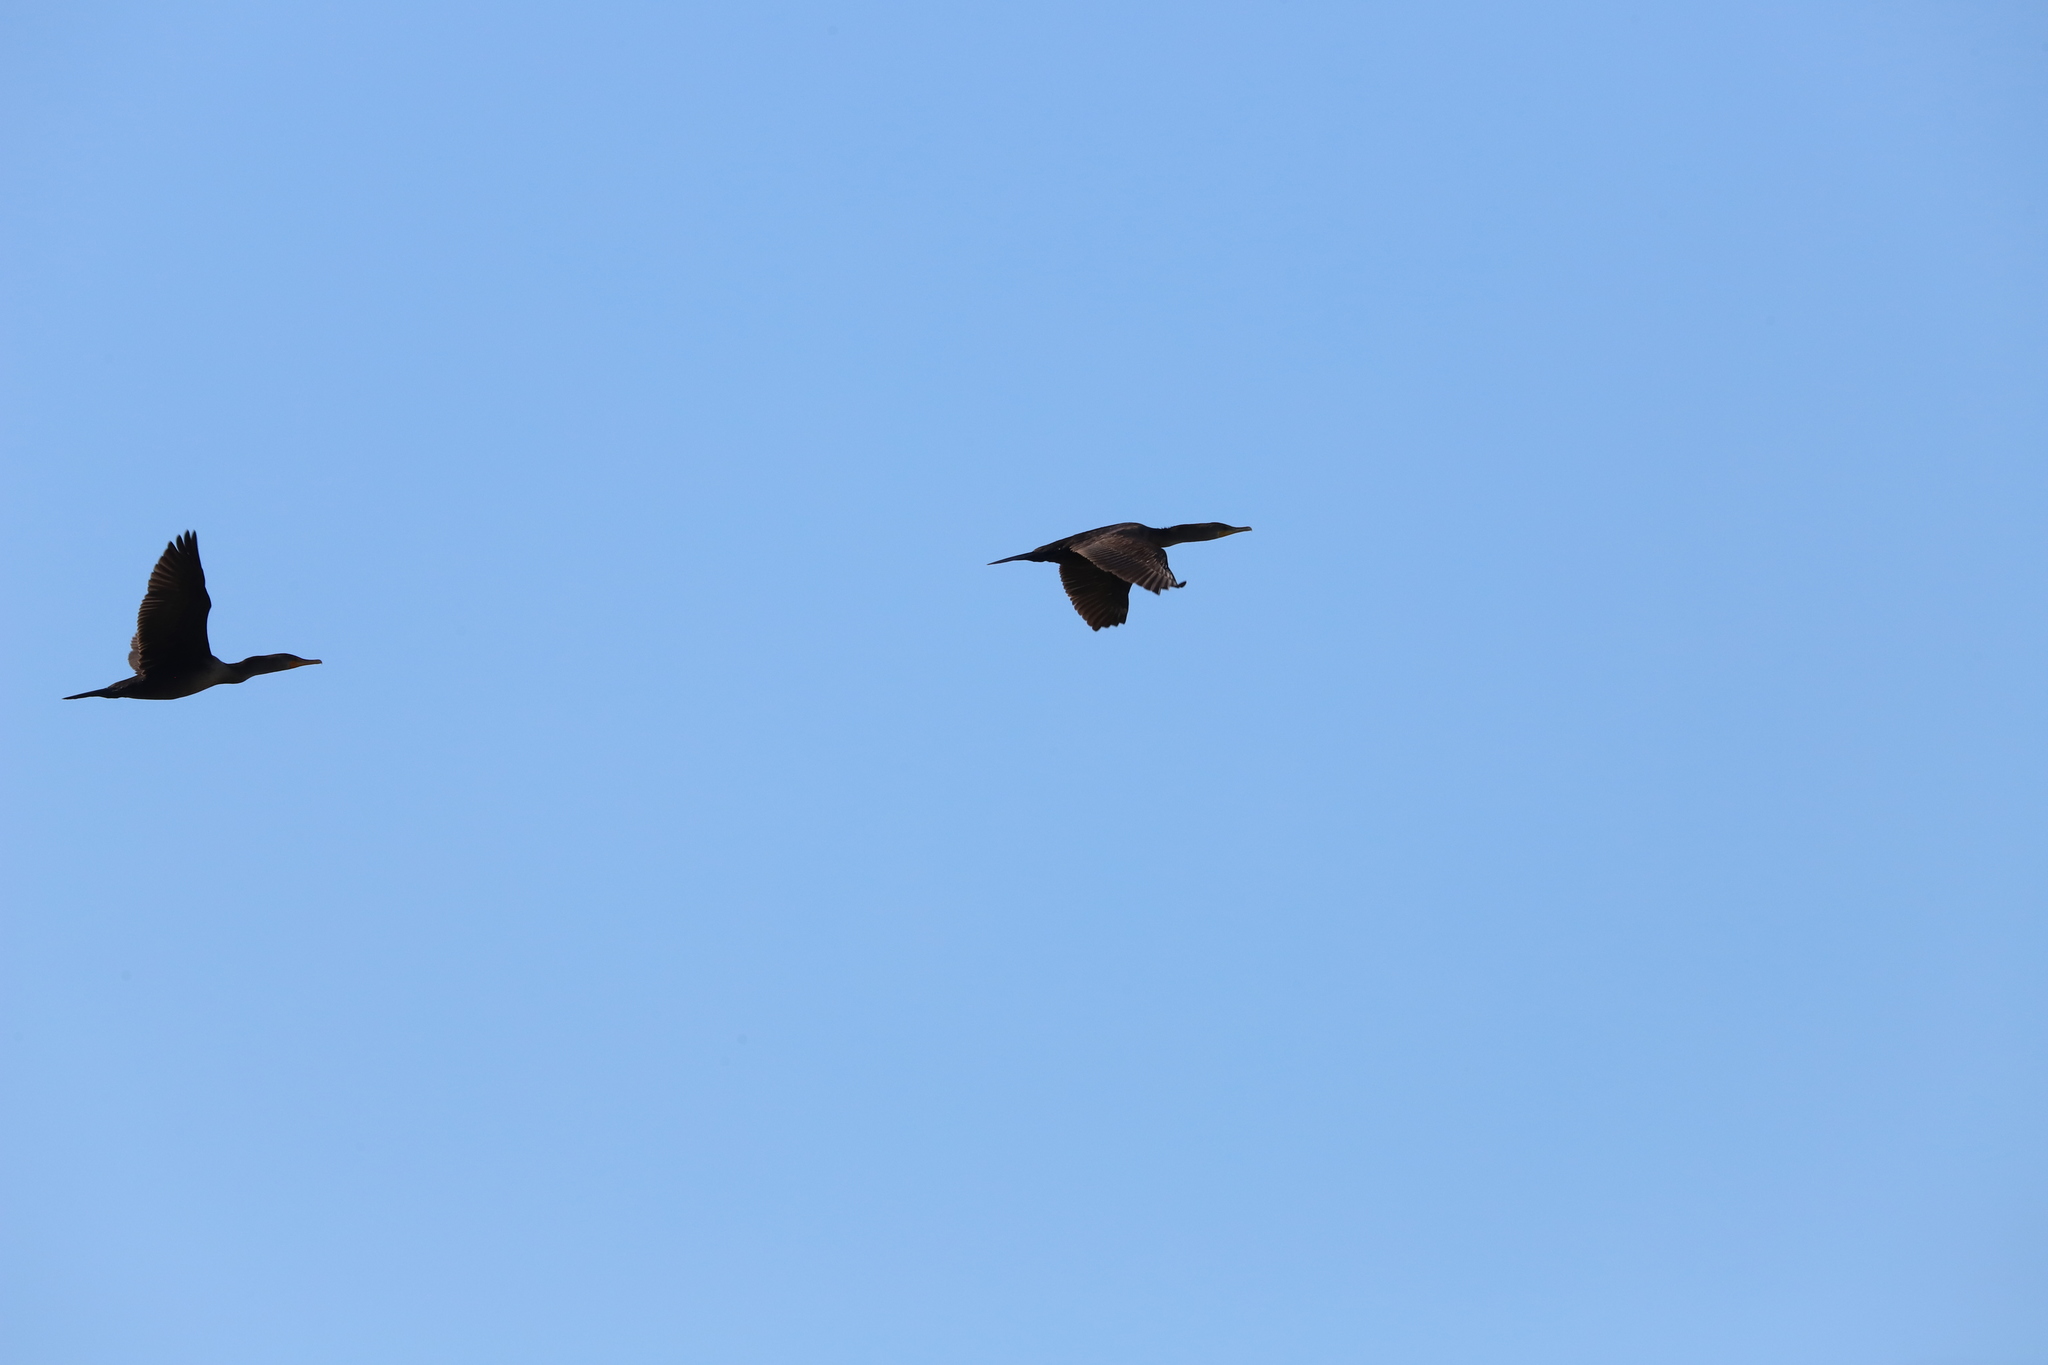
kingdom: Animalia
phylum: Chordata
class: Aves
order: Suliformes
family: Phalacrocoracidae
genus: Phalacrocorax
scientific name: Phalacrocorax auritus
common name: Double-crested cormorant
